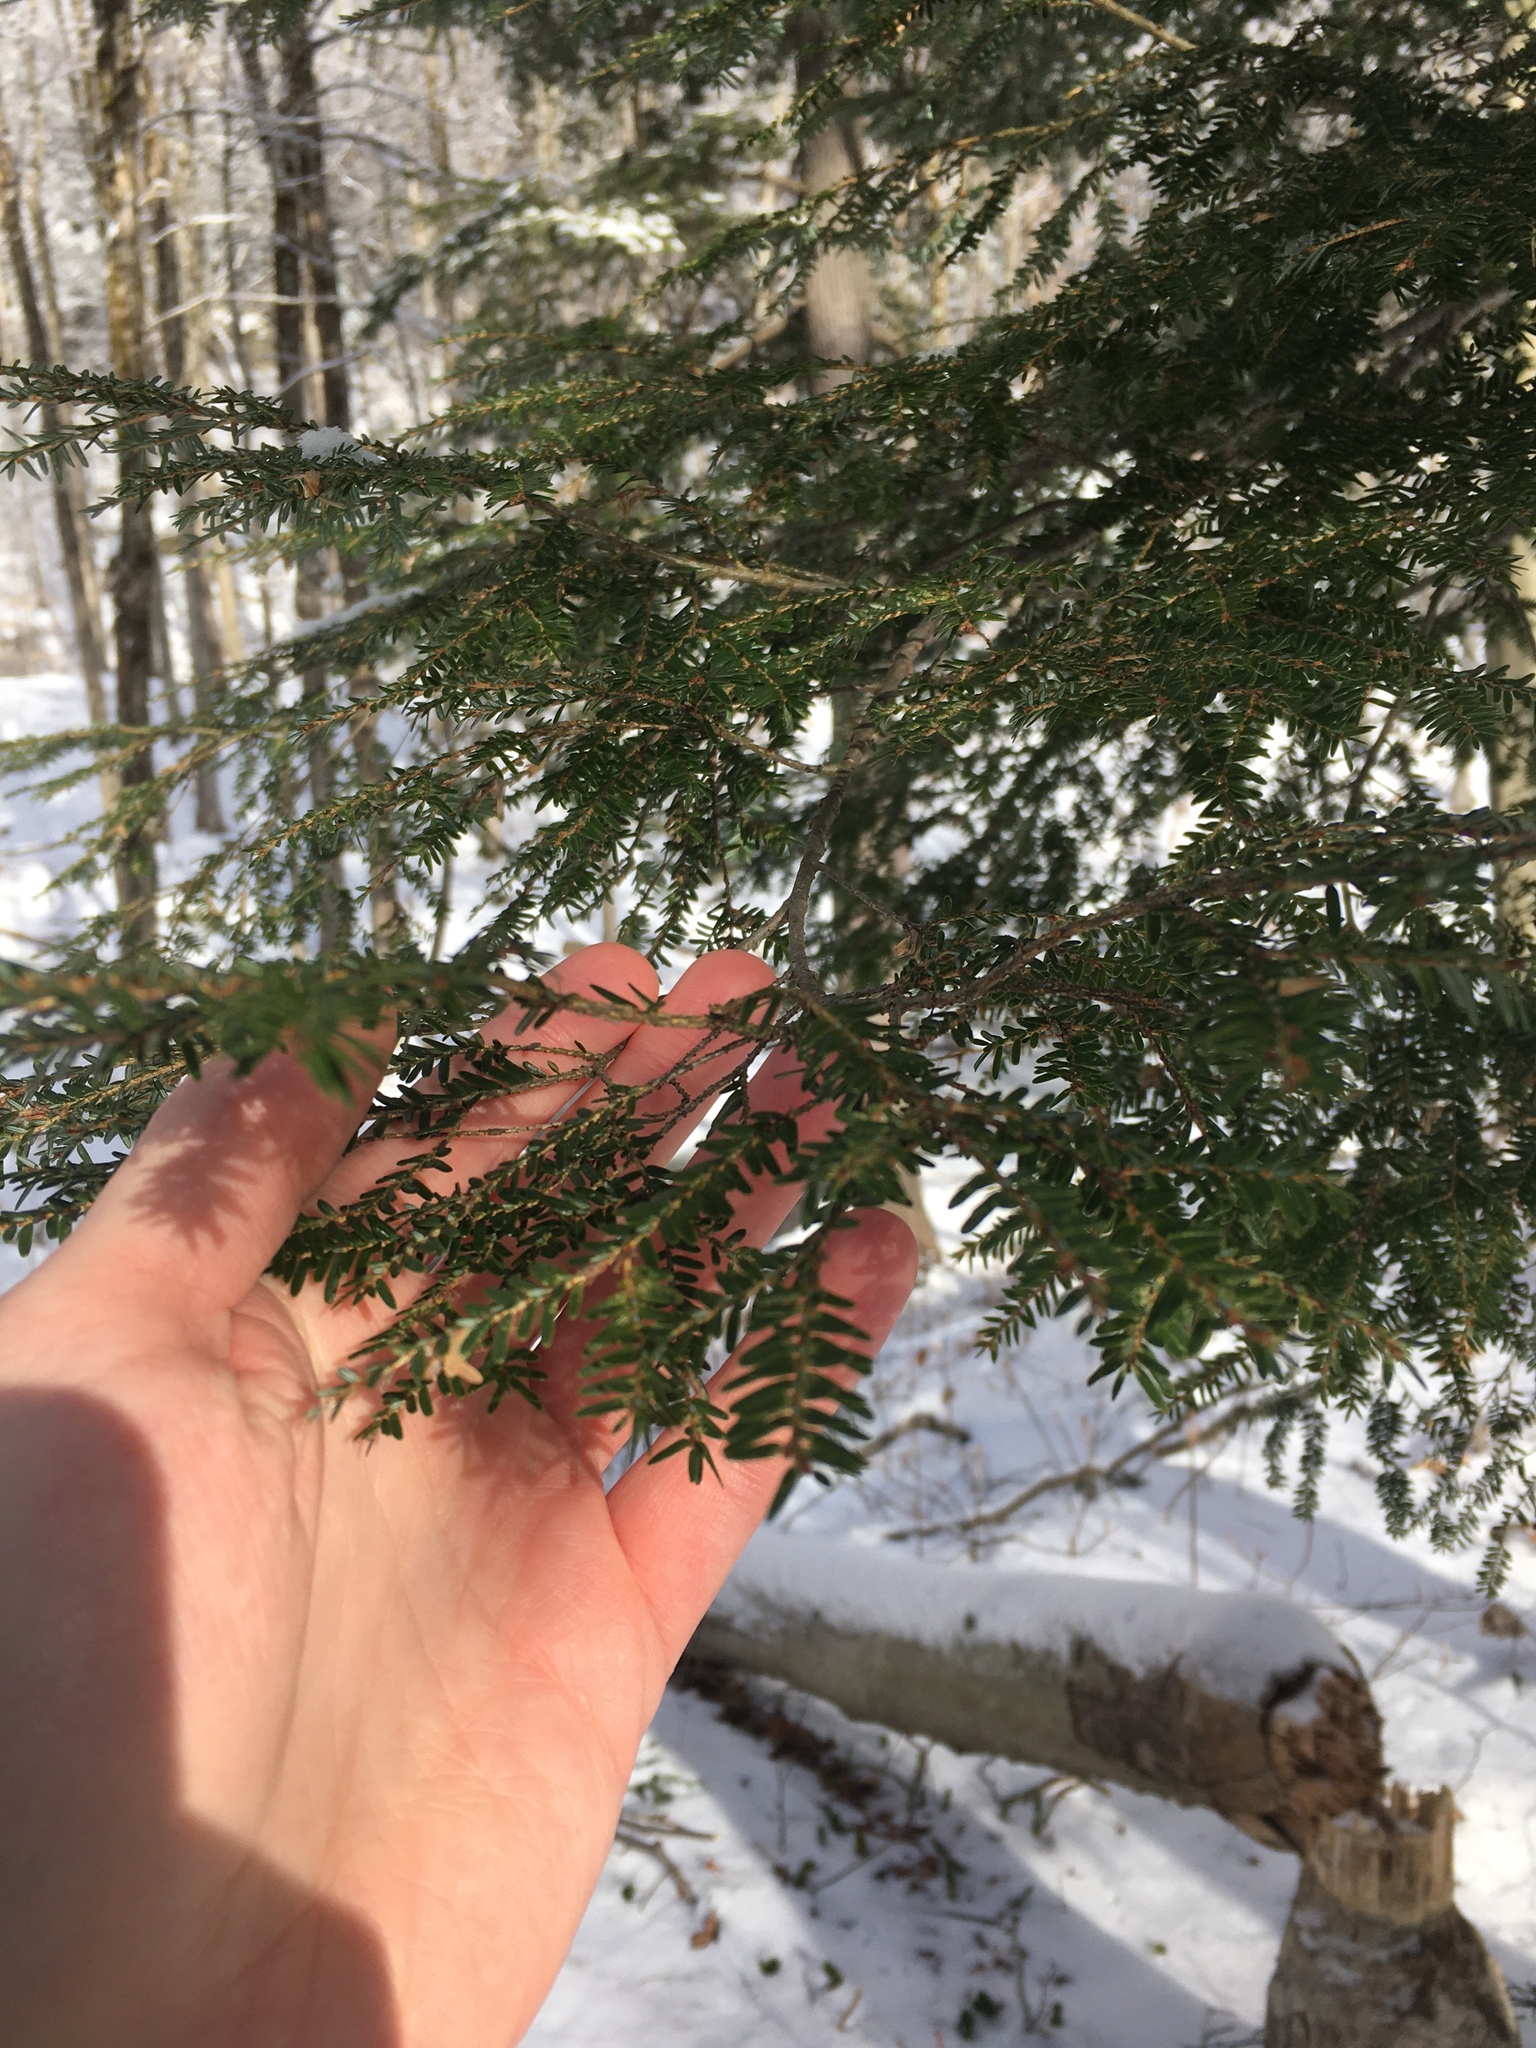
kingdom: Plantae
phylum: Tracheophyta
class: Pinopsida
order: Pinales
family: Pinaceae
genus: Tsuga
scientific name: Tsuga canadensis
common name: Eastern hemlock
